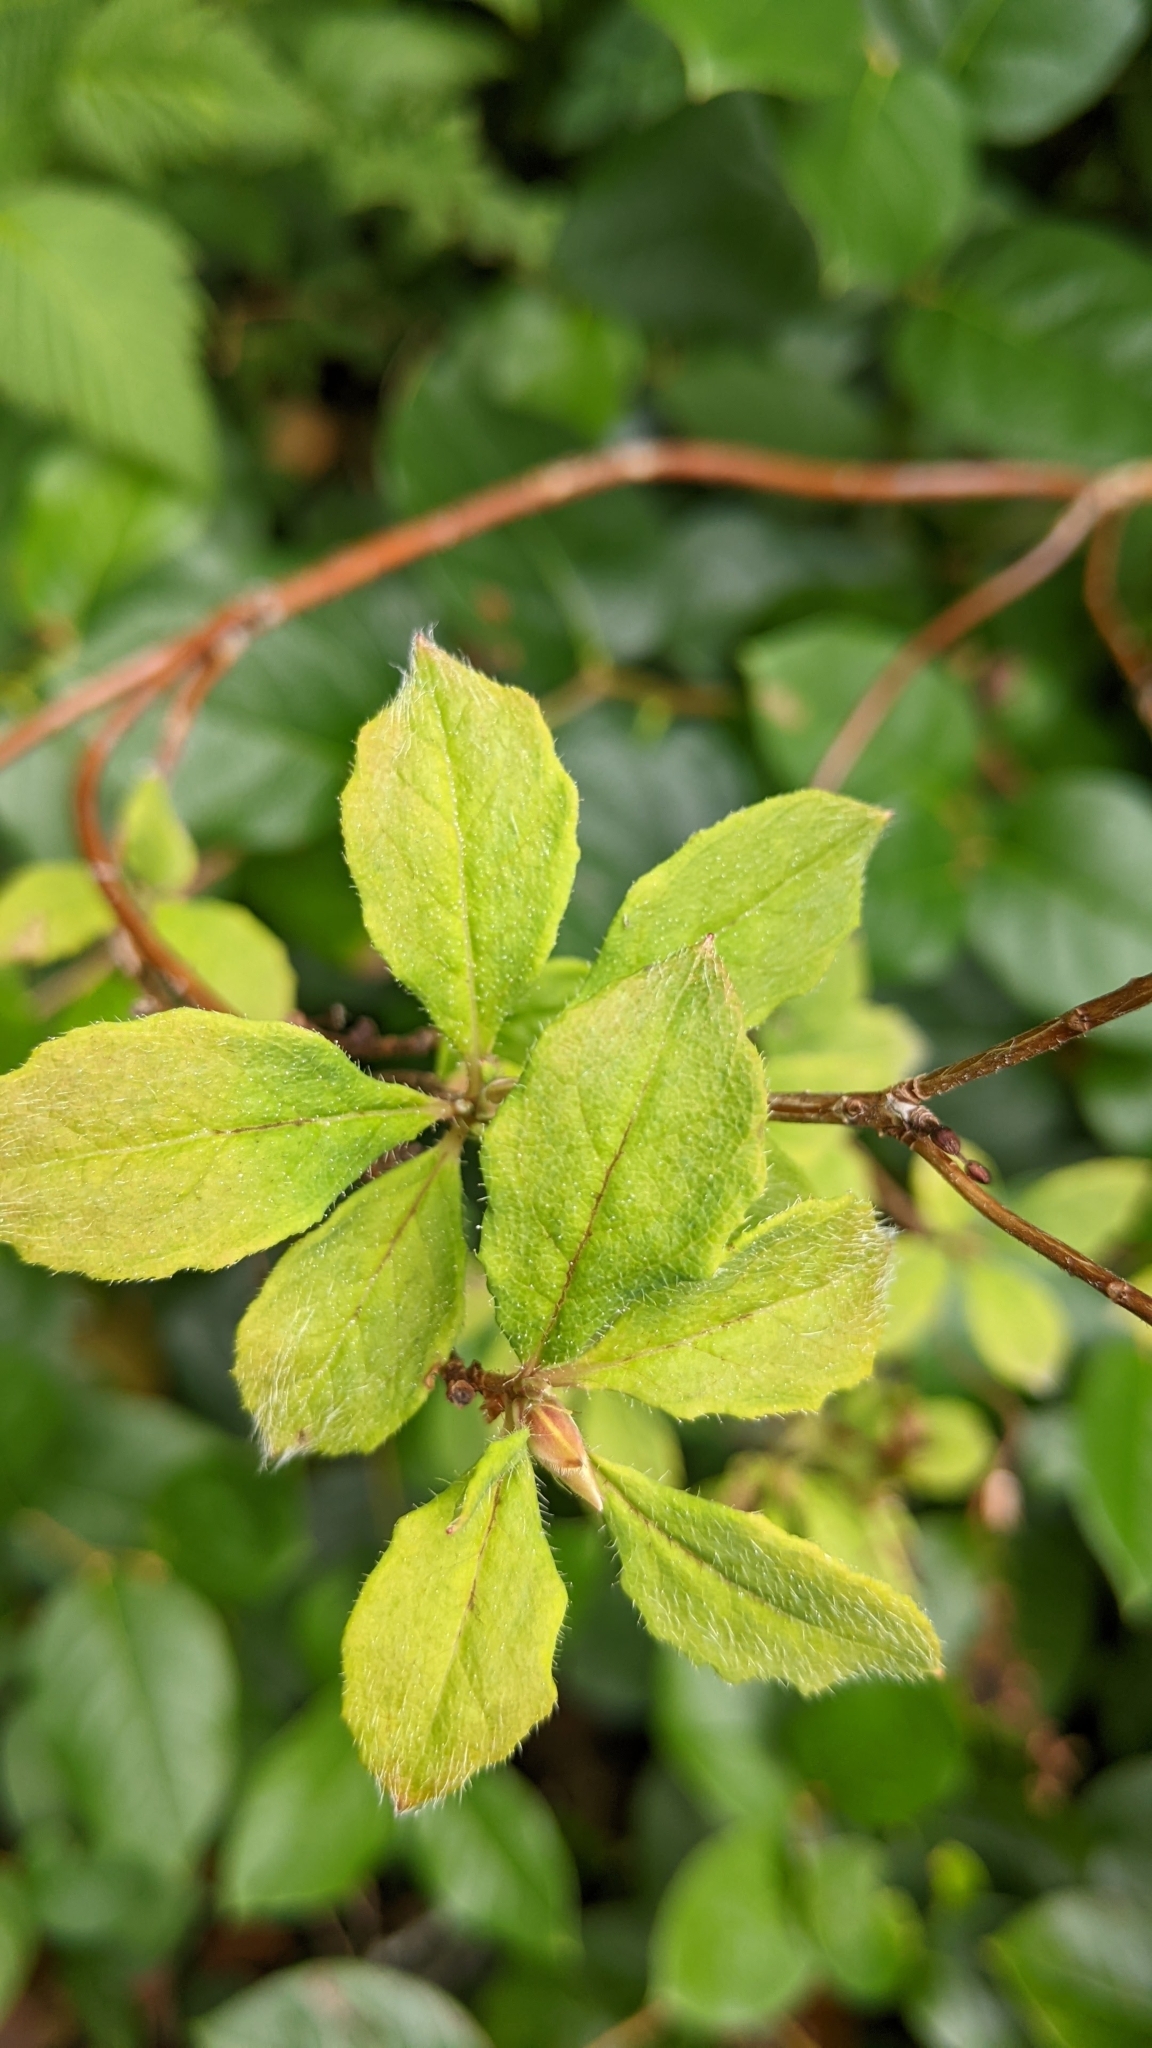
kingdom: Plantae
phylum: Tracheophyta
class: Magnoliopsida
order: Ericales
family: Ericaceae
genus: Rhododendron
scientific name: Rhododendron menziesii
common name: Pacific menziesia
